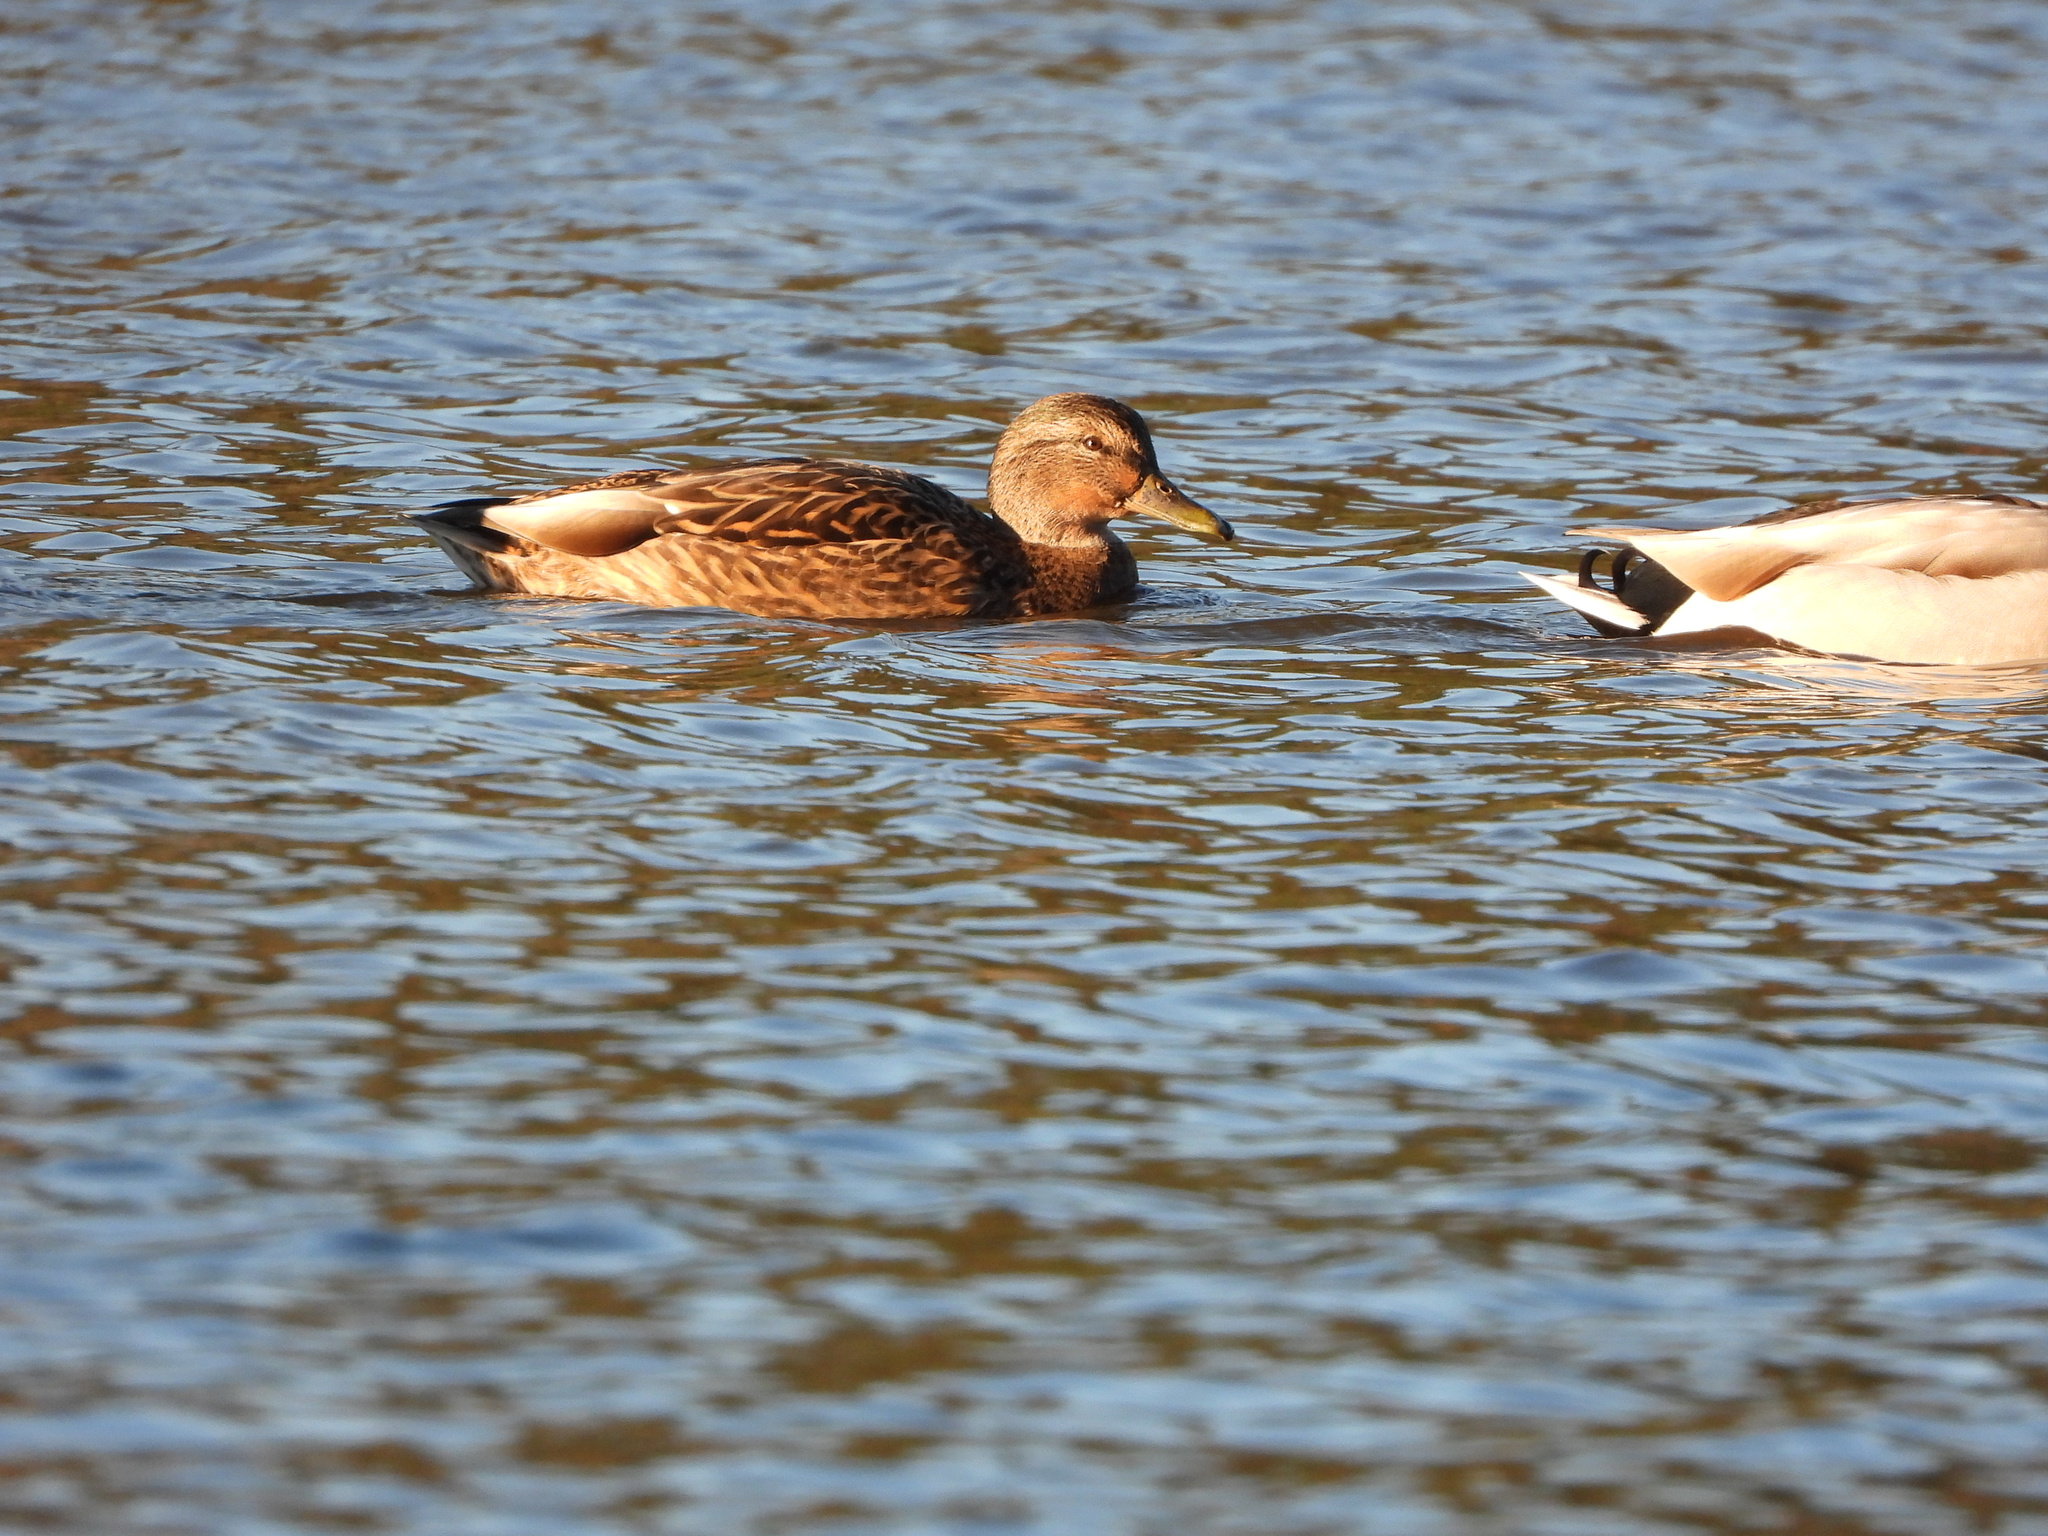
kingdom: Animalia
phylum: Chordata
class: Aves
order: Anseriformes
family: Anatidae
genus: Anas
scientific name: Anas platyrhynchos
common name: Mallard
